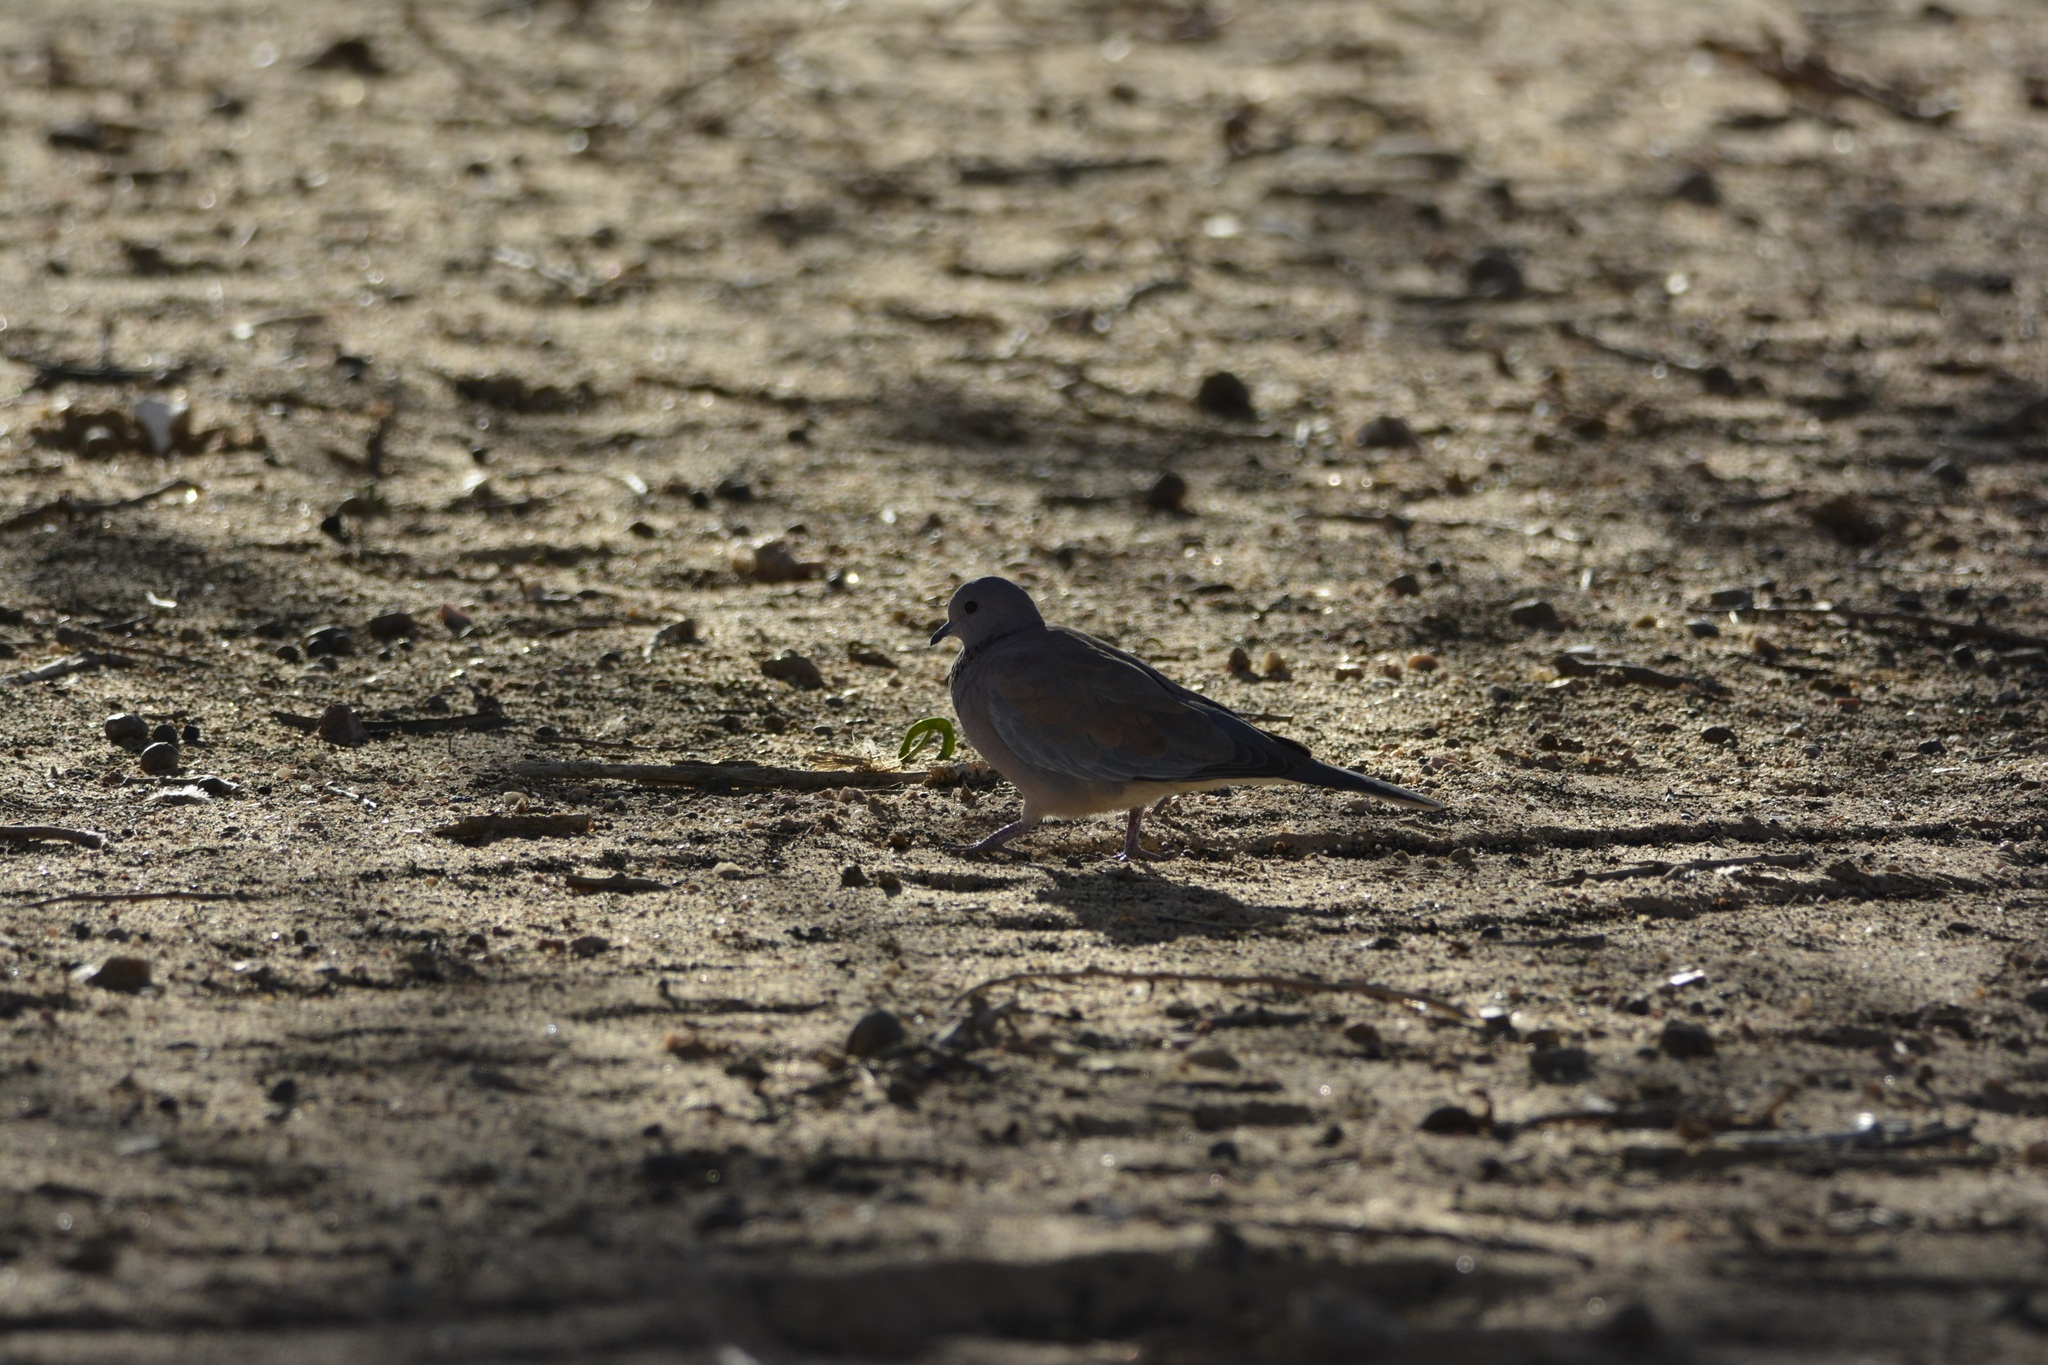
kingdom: Animalia
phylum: Chordata
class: Aves
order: Columbiformes
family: Columbidae
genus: Spilopelia
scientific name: Spilopelia senegalensis
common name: Laughing dove
